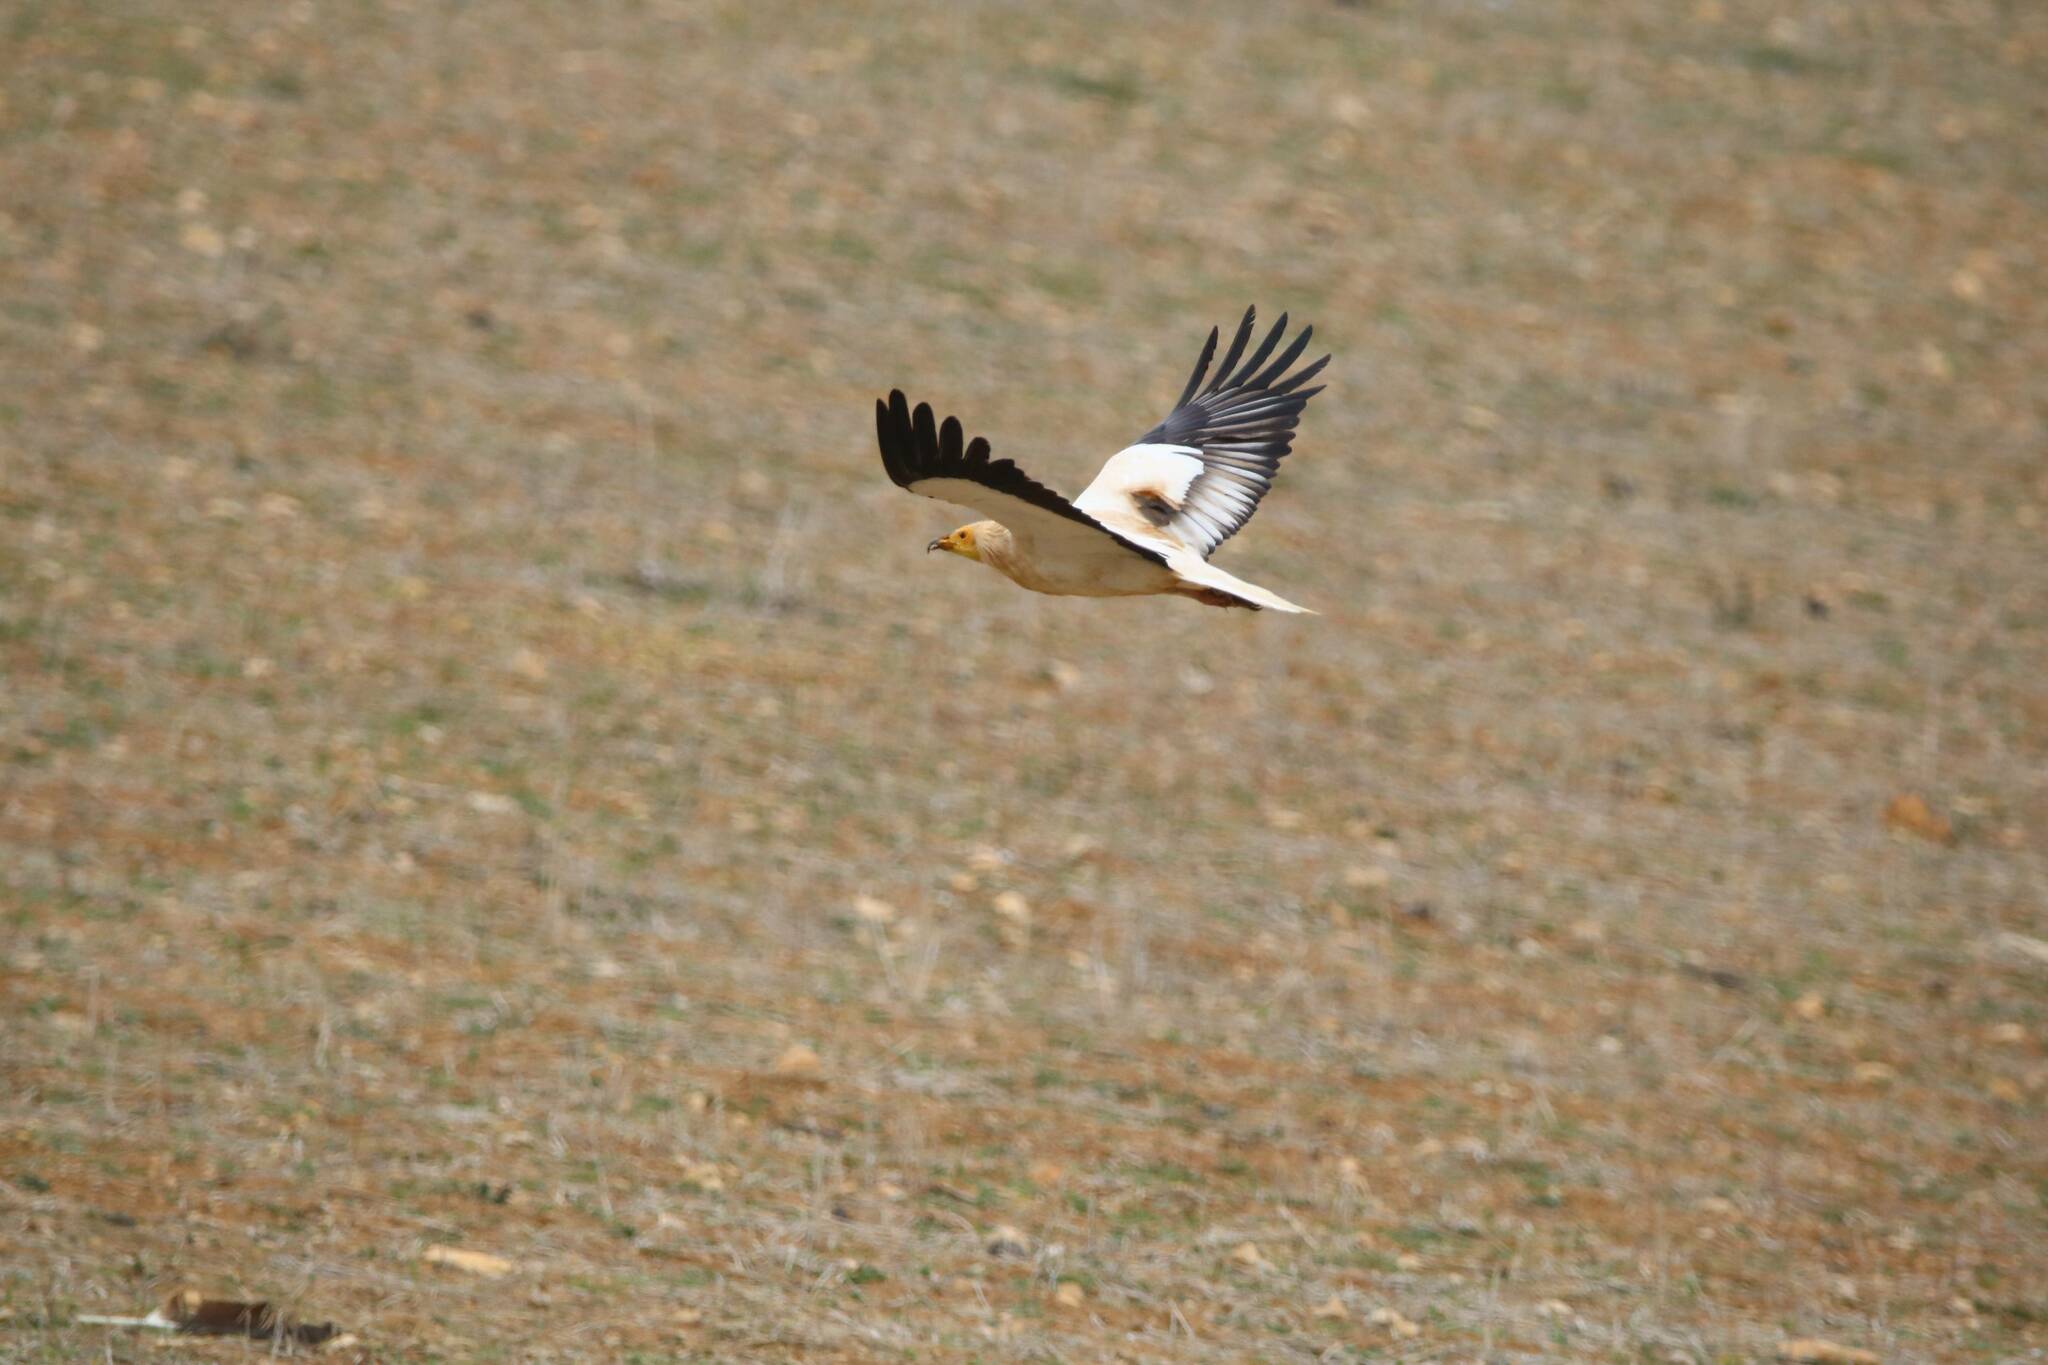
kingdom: Animalia
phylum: Chordata
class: Aves
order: Accipitriformes
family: Accipitridae
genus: Neophron
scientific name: Neophron percnopterus
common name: Egyptian vulture
